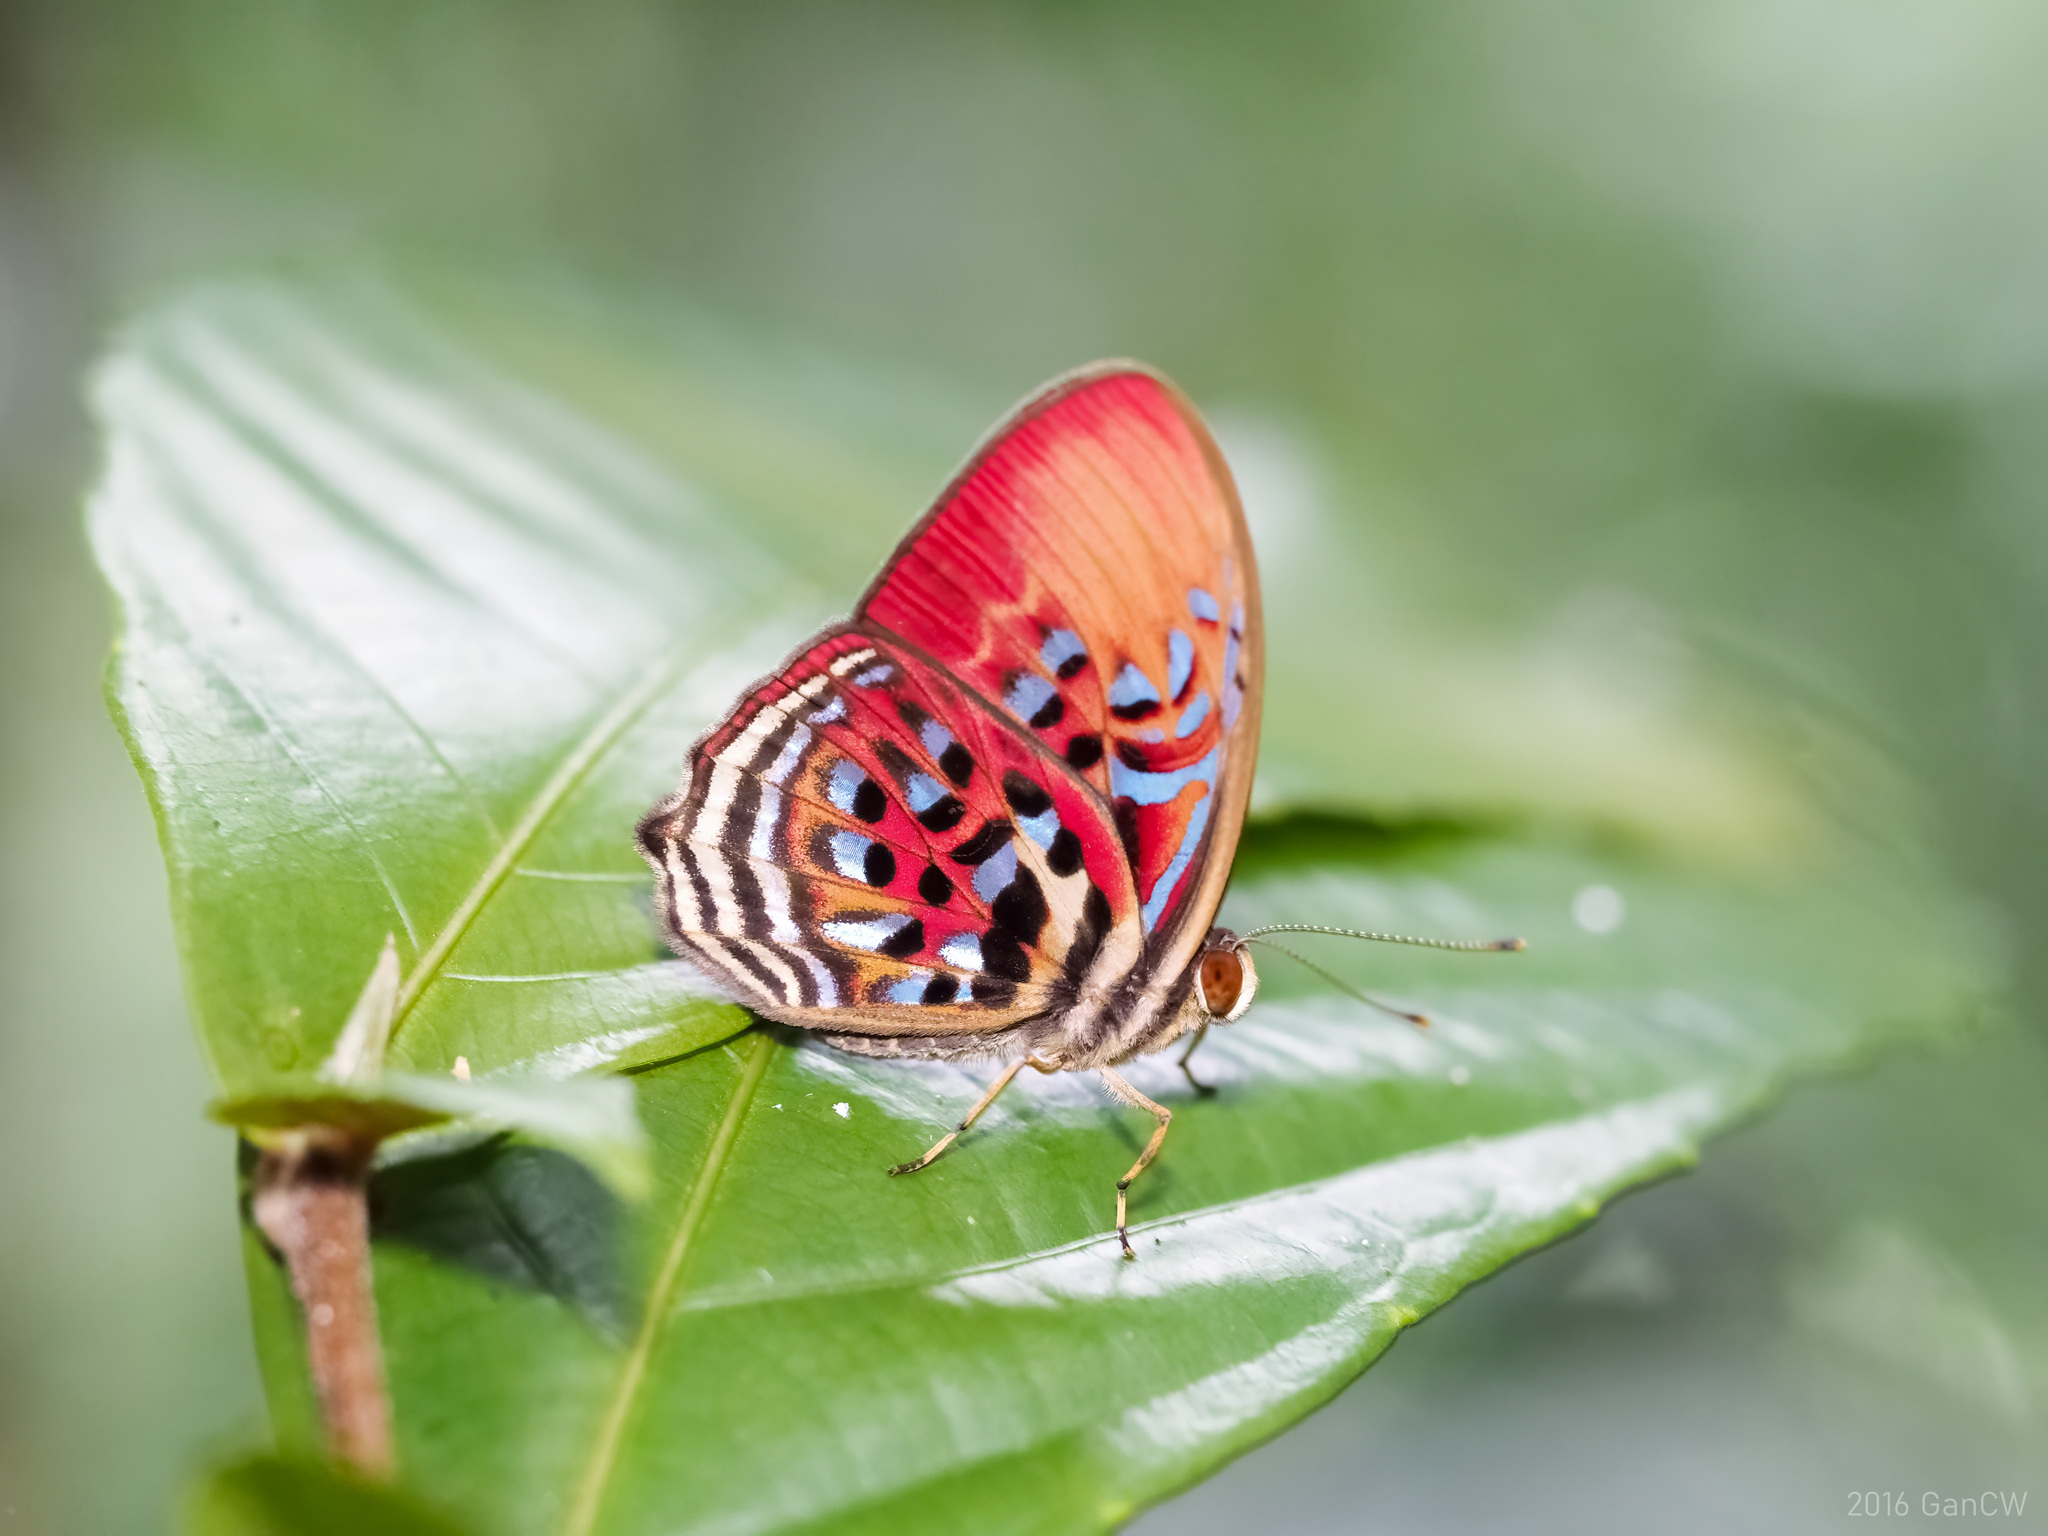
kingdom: Animalia
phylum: Arthropoda
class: Insecta
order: Lepidoptera
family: Riodinidae
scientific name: Riodinidae
